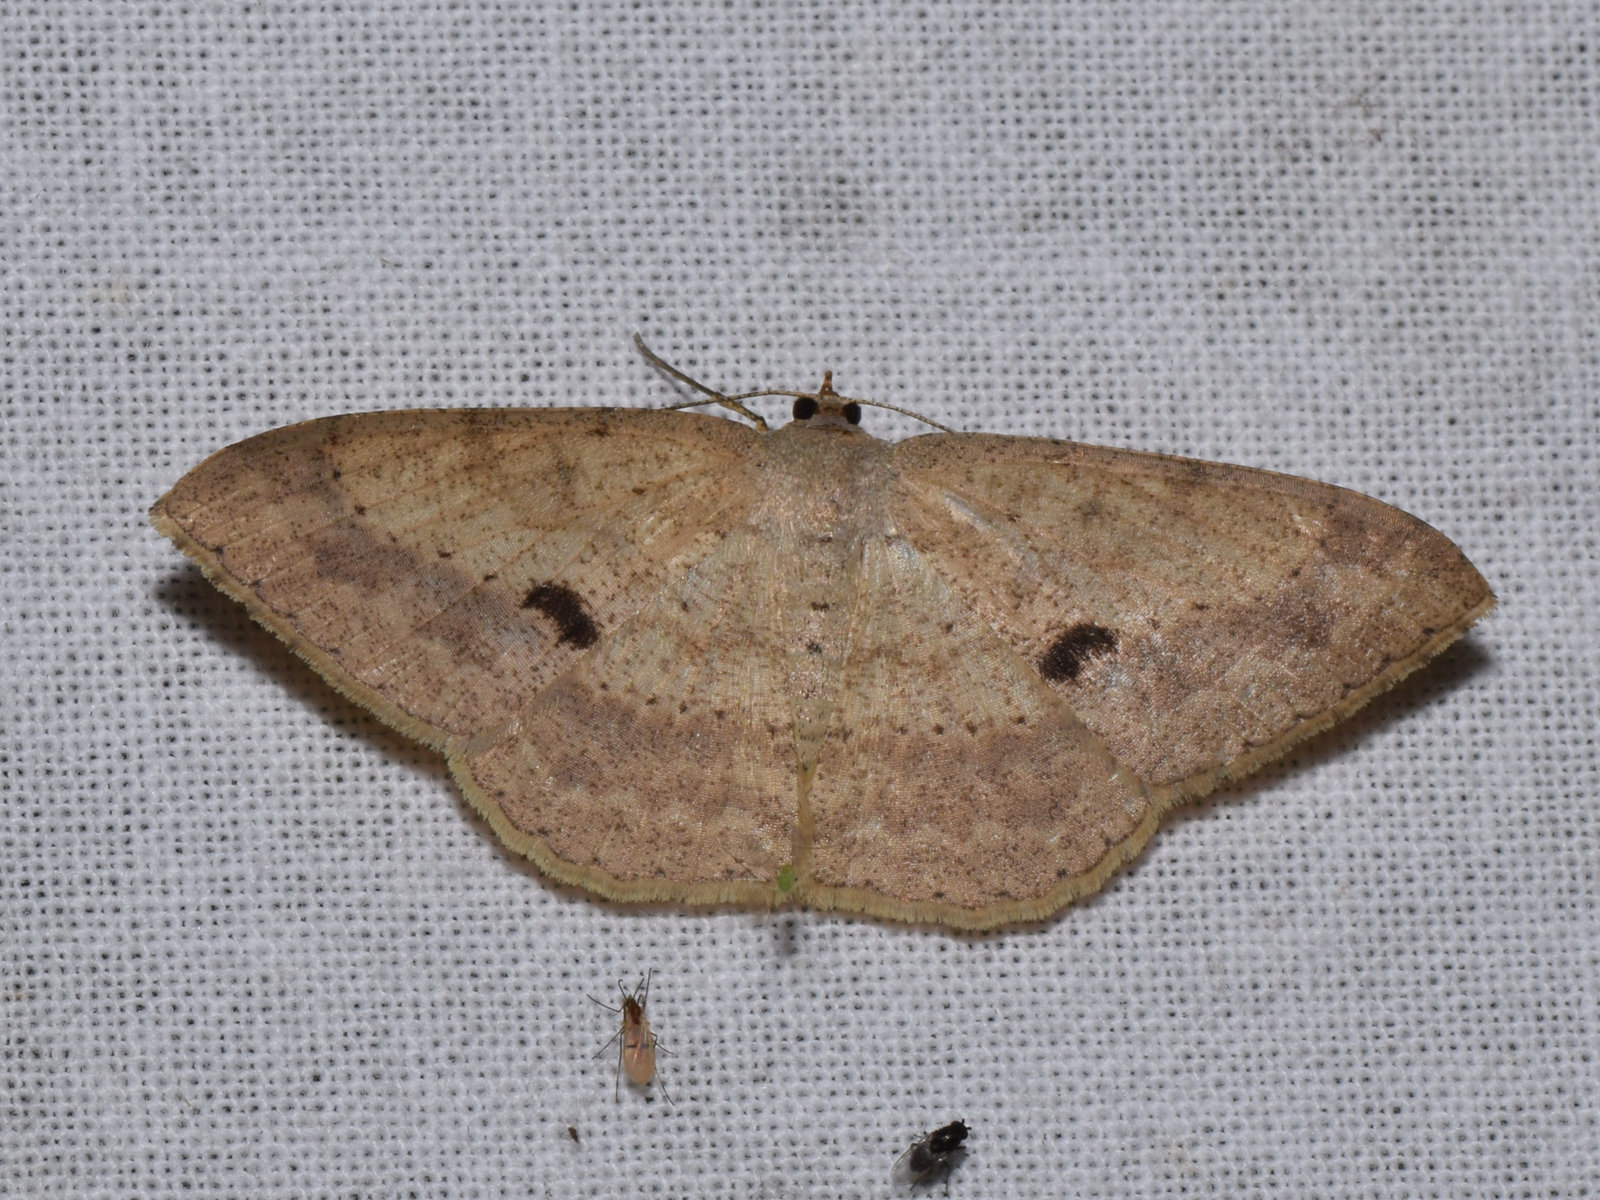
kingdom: Animalia
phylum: Arthropoda
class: Insecta
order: Lepidoptera
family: Geometridae
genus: Luxiaria
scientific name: Luxiaria tephrosaria
